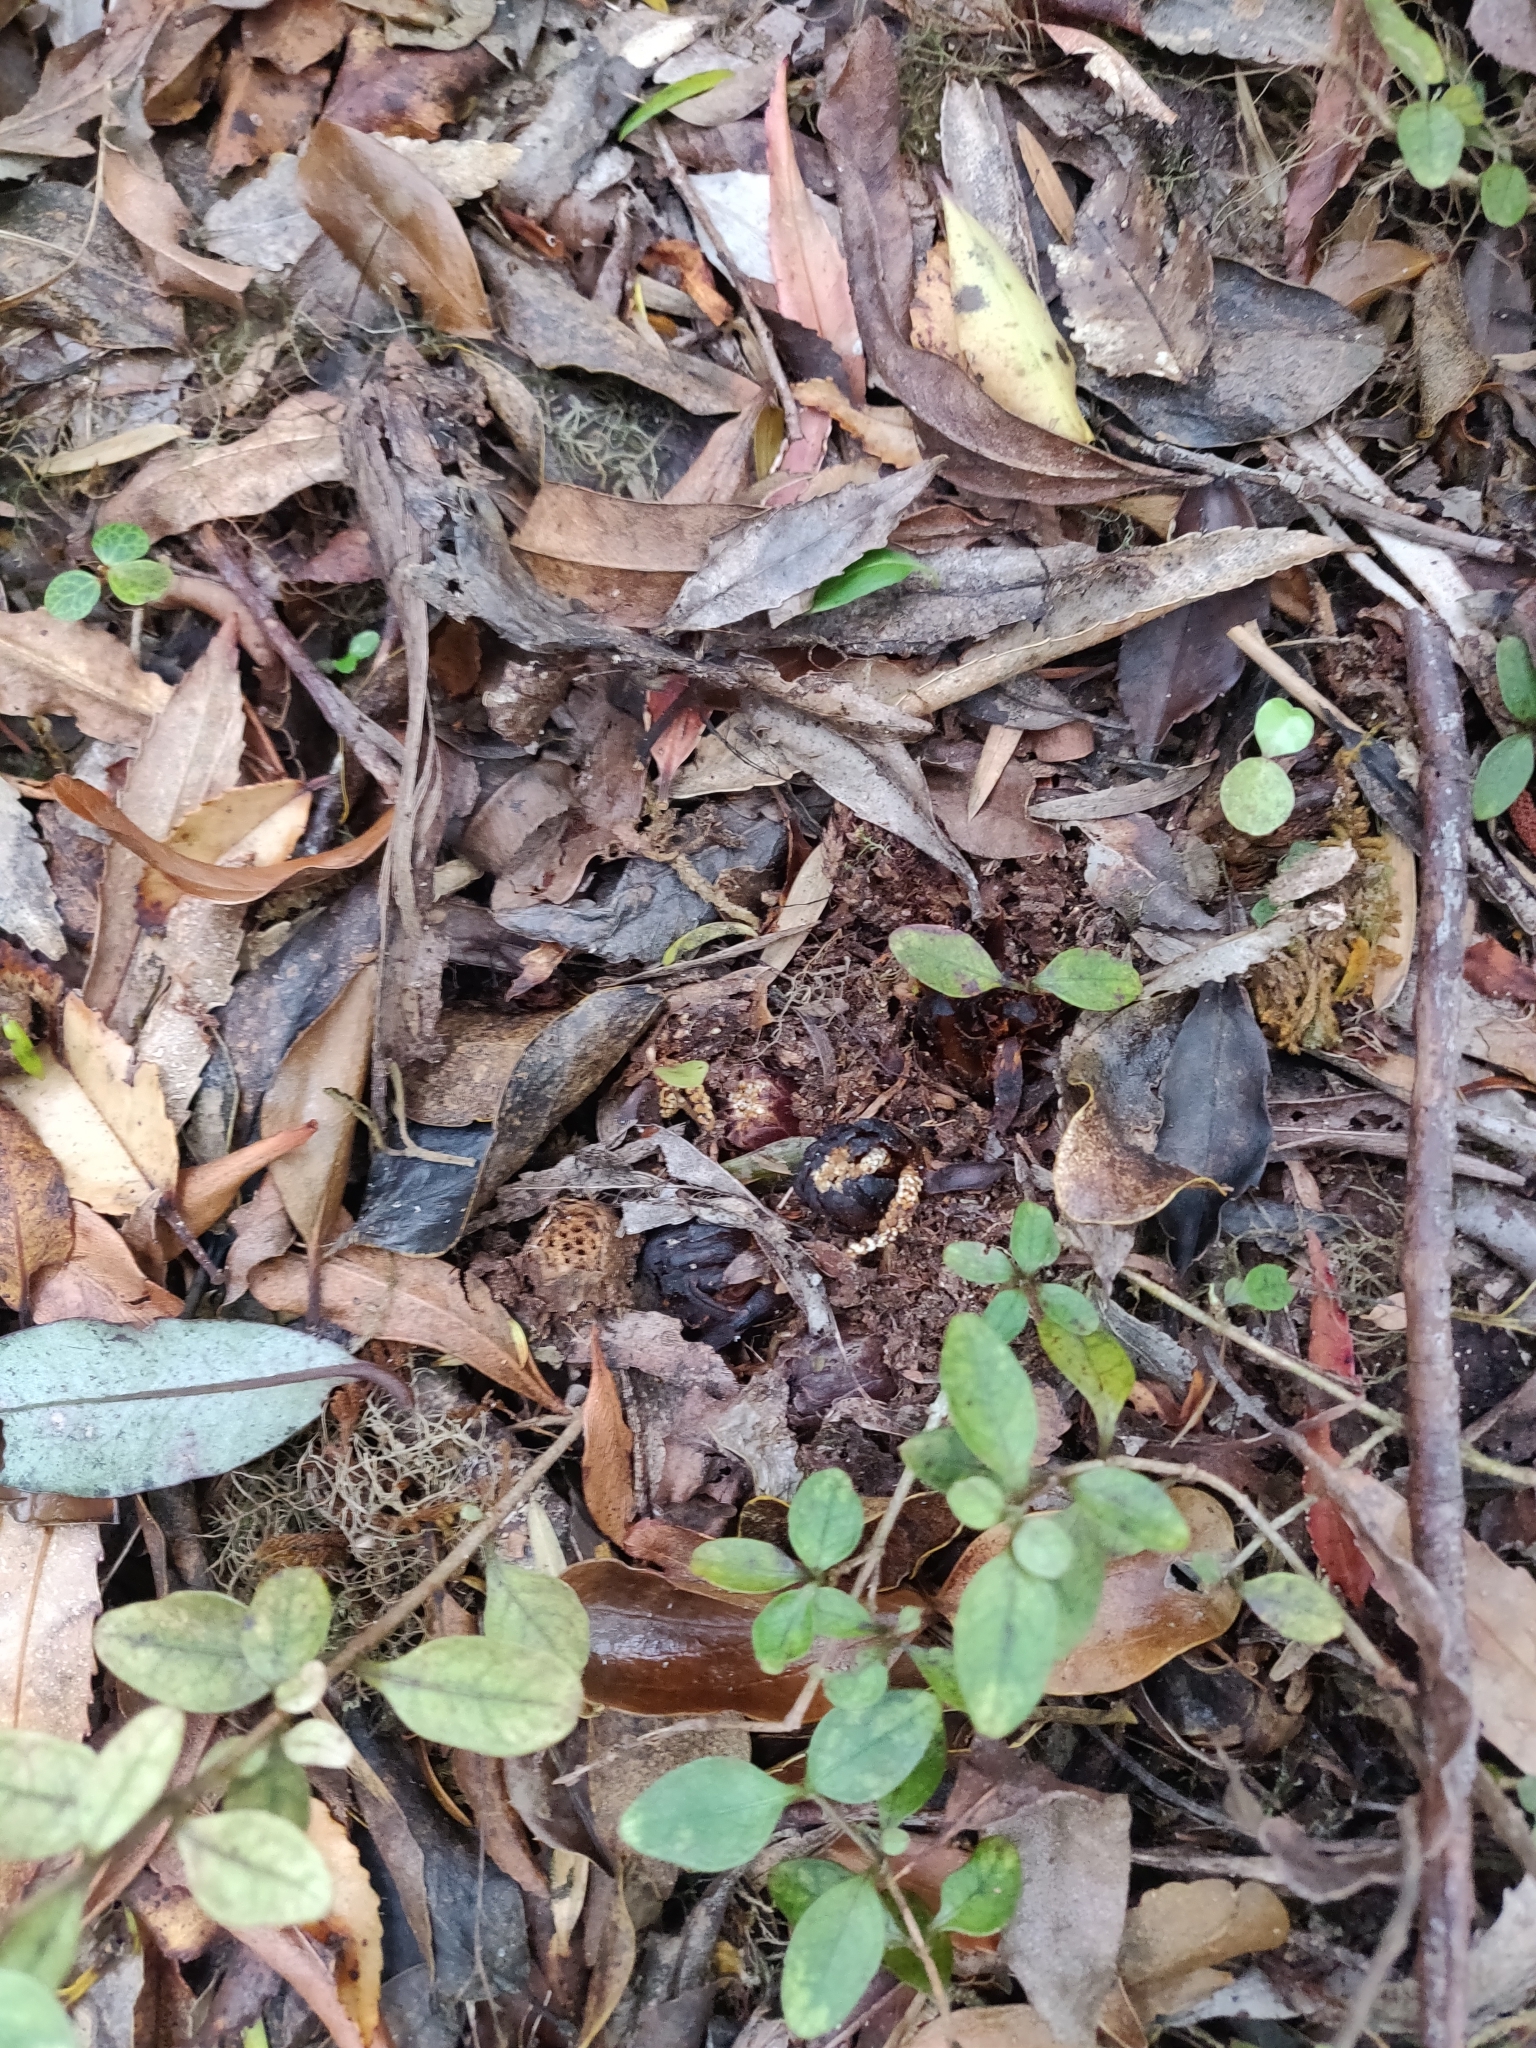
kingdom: Plantae
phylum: Tracheophyta
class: Magnoliopsida
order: Santalales
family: Mystropetalaceae
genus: Dactylanthus
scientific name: Dactylanthus taylorii
